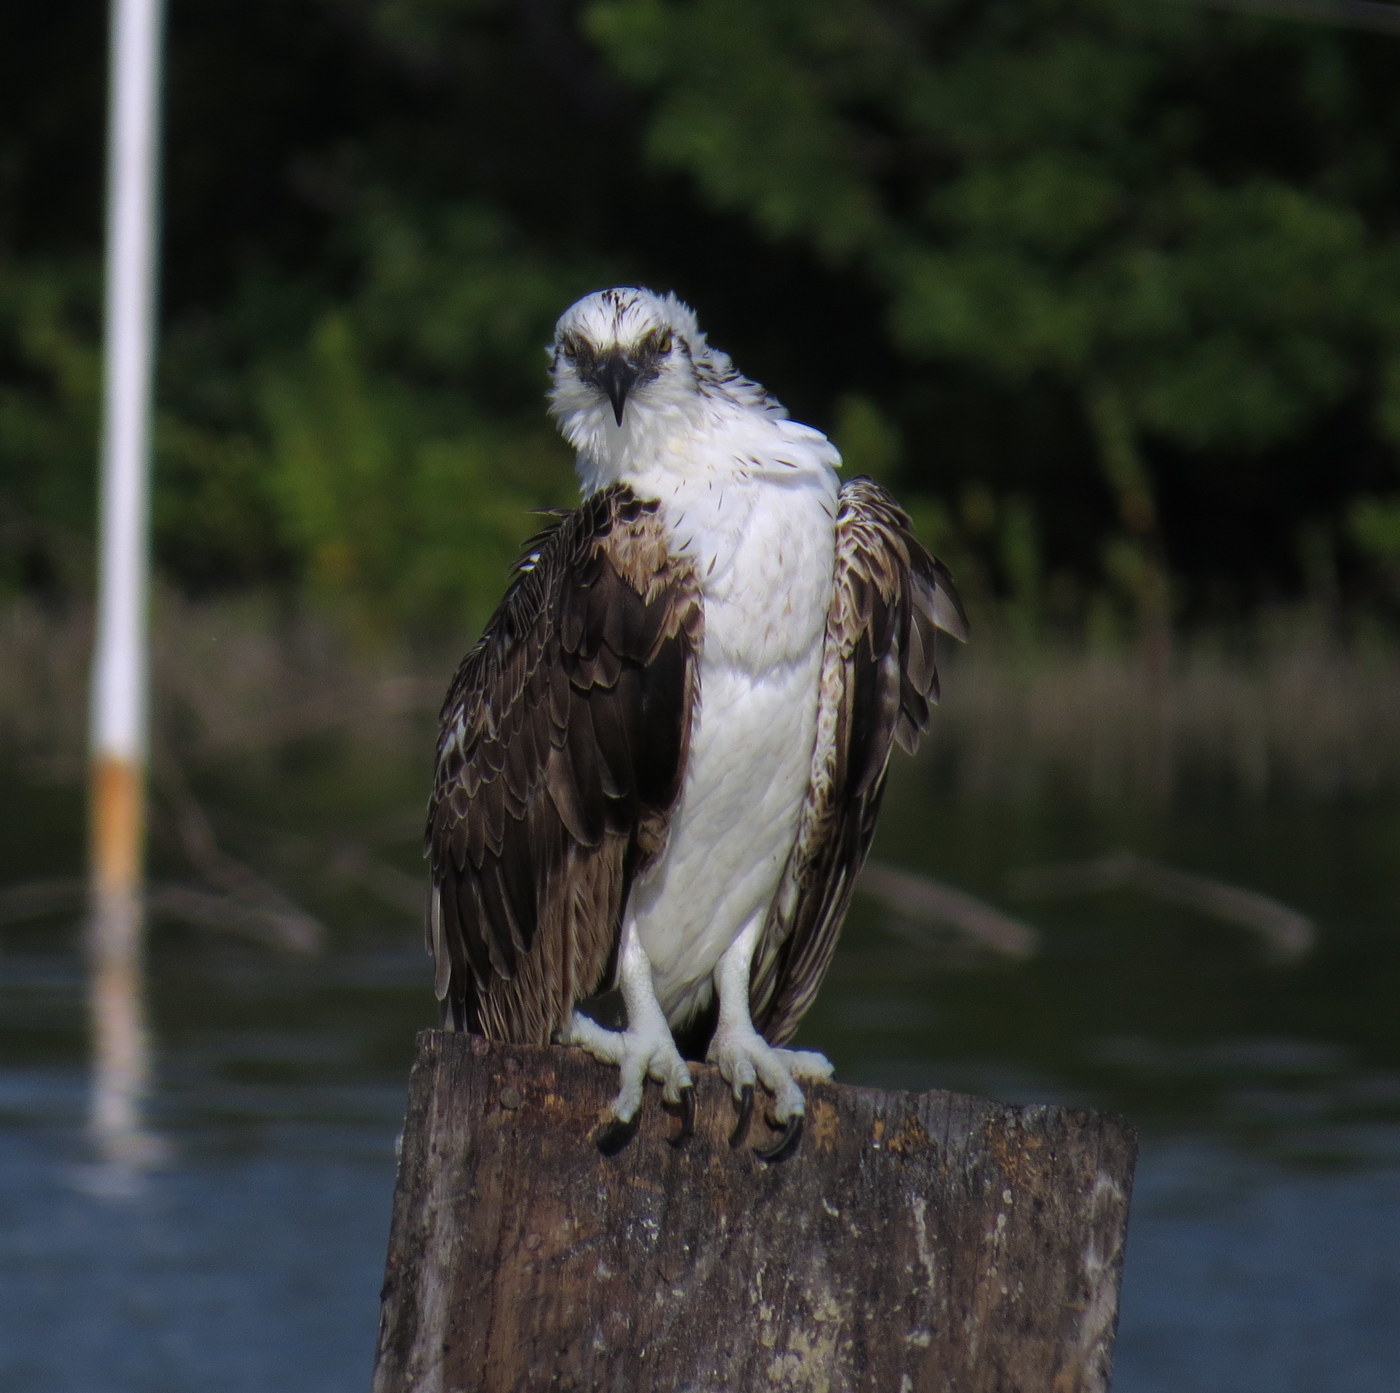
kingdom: Animalia
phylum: Chordata
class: Aves
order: Accipitriformes
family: Pandionidae
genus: Pandion
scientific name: Pandion haliaetus
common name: Osprey
